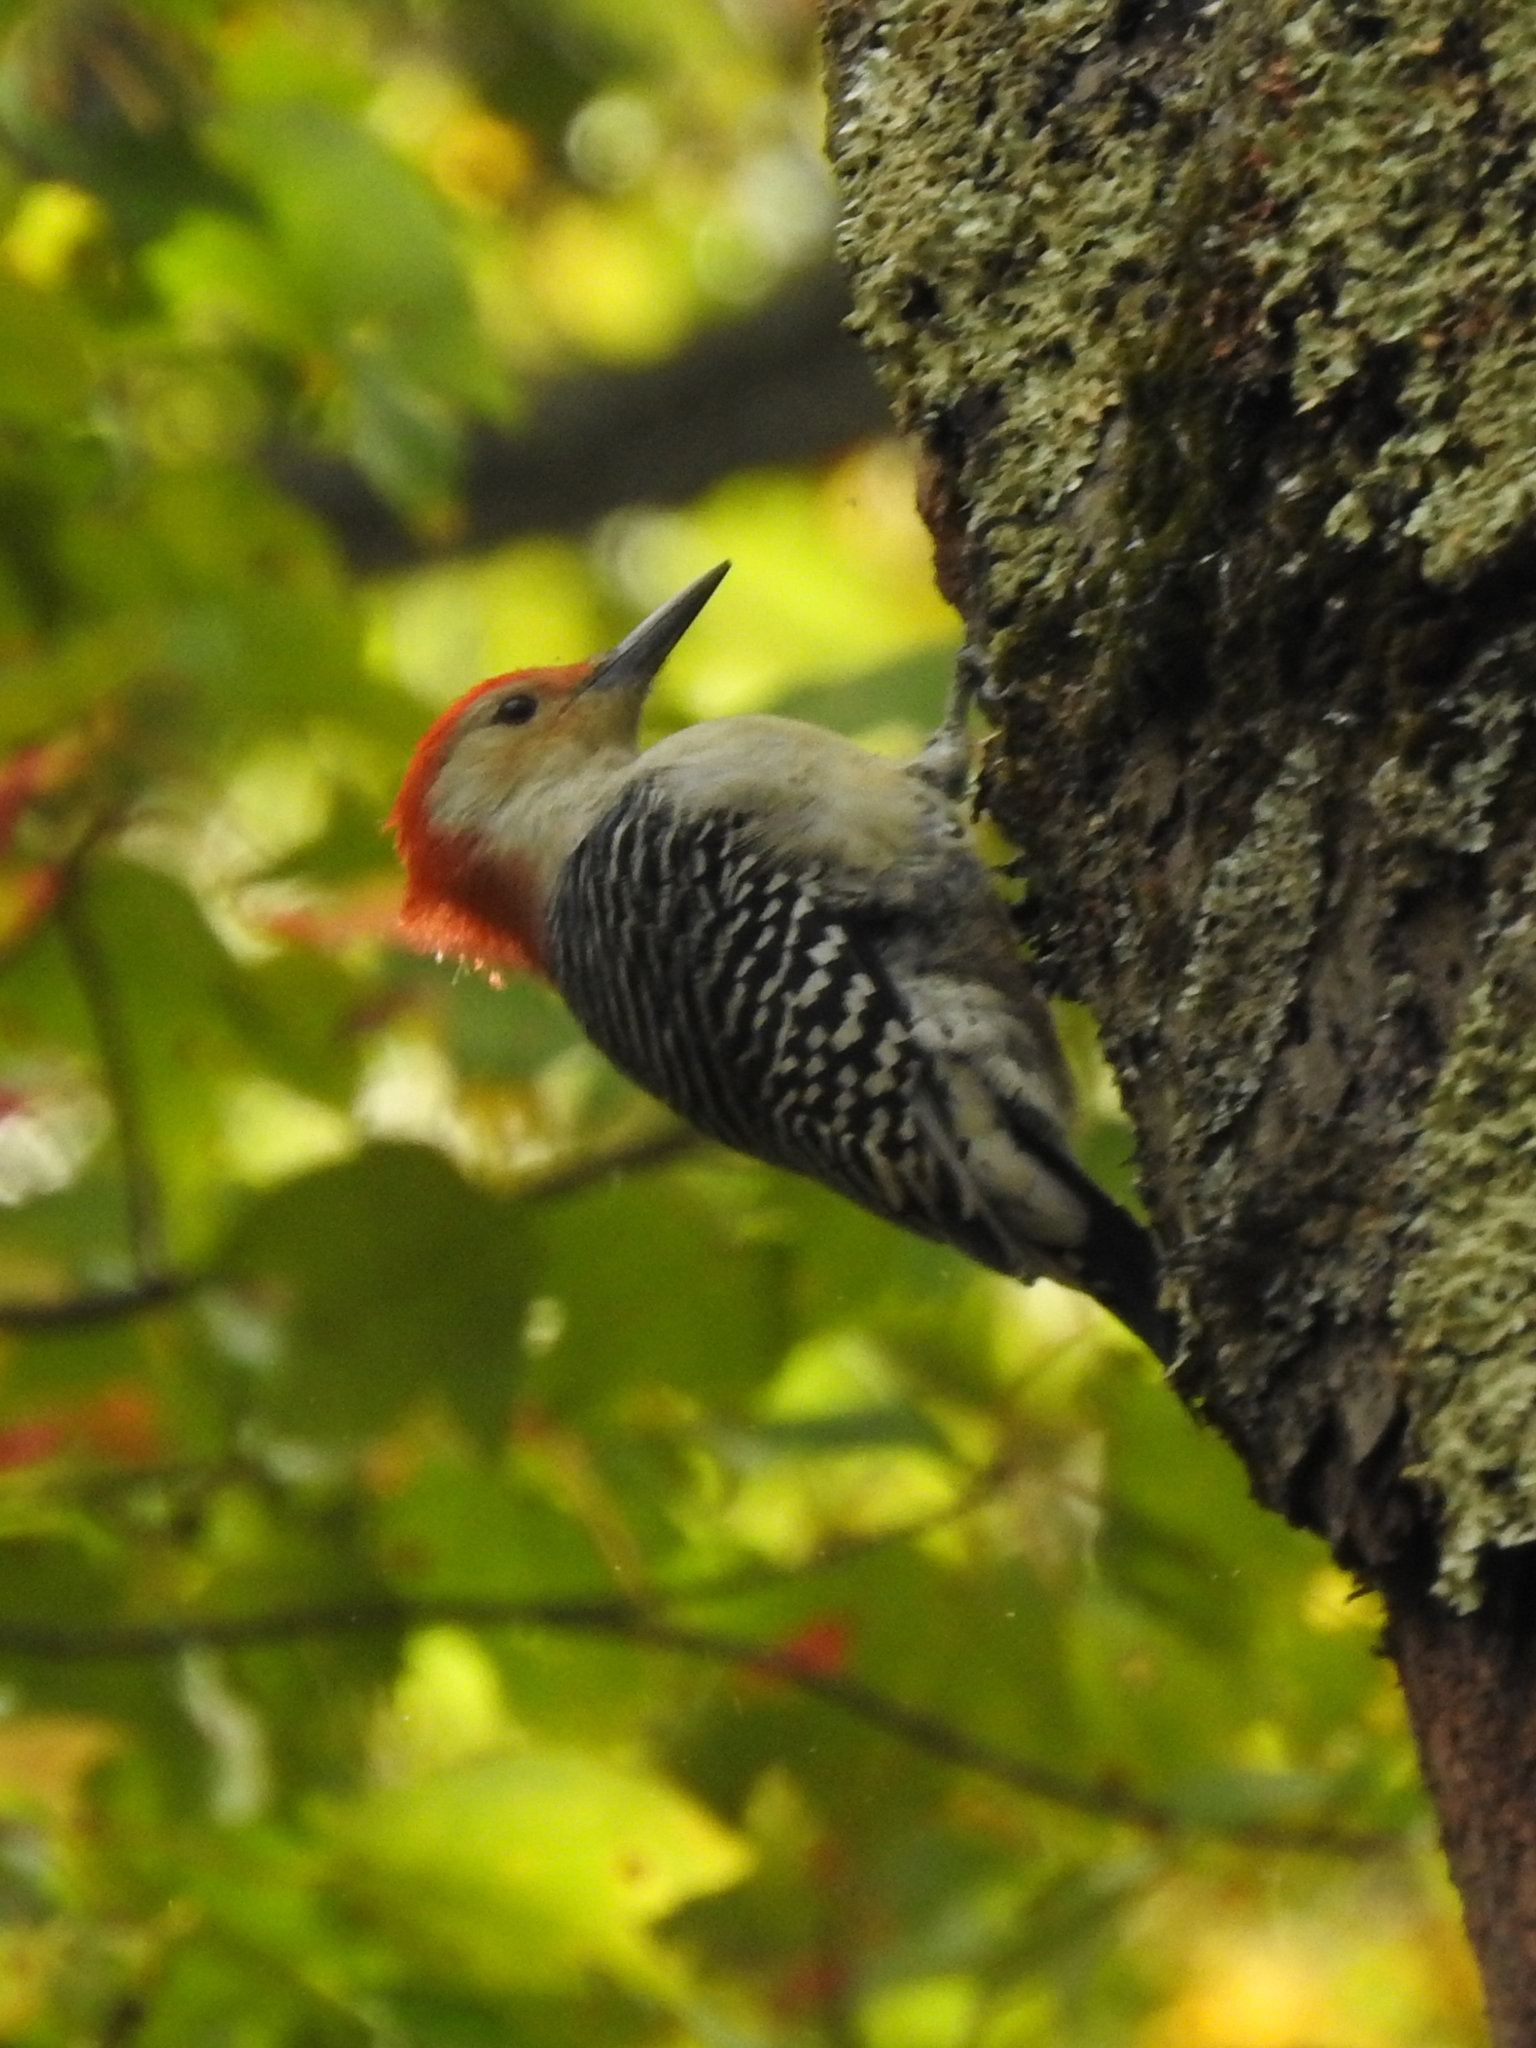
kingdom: Animalia
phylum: Chordata
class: Aves
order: Piciformes
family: Picidae
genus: Melanerpes
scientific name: Melanerpes carolinus
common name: Red-bellied woodpecker
